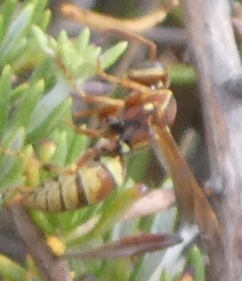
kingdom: Animalia
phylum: Arthropoda
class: Insecta
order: Hymenoptera
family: Eumenidae
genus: Polistes
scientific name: Polistes dorsalis
